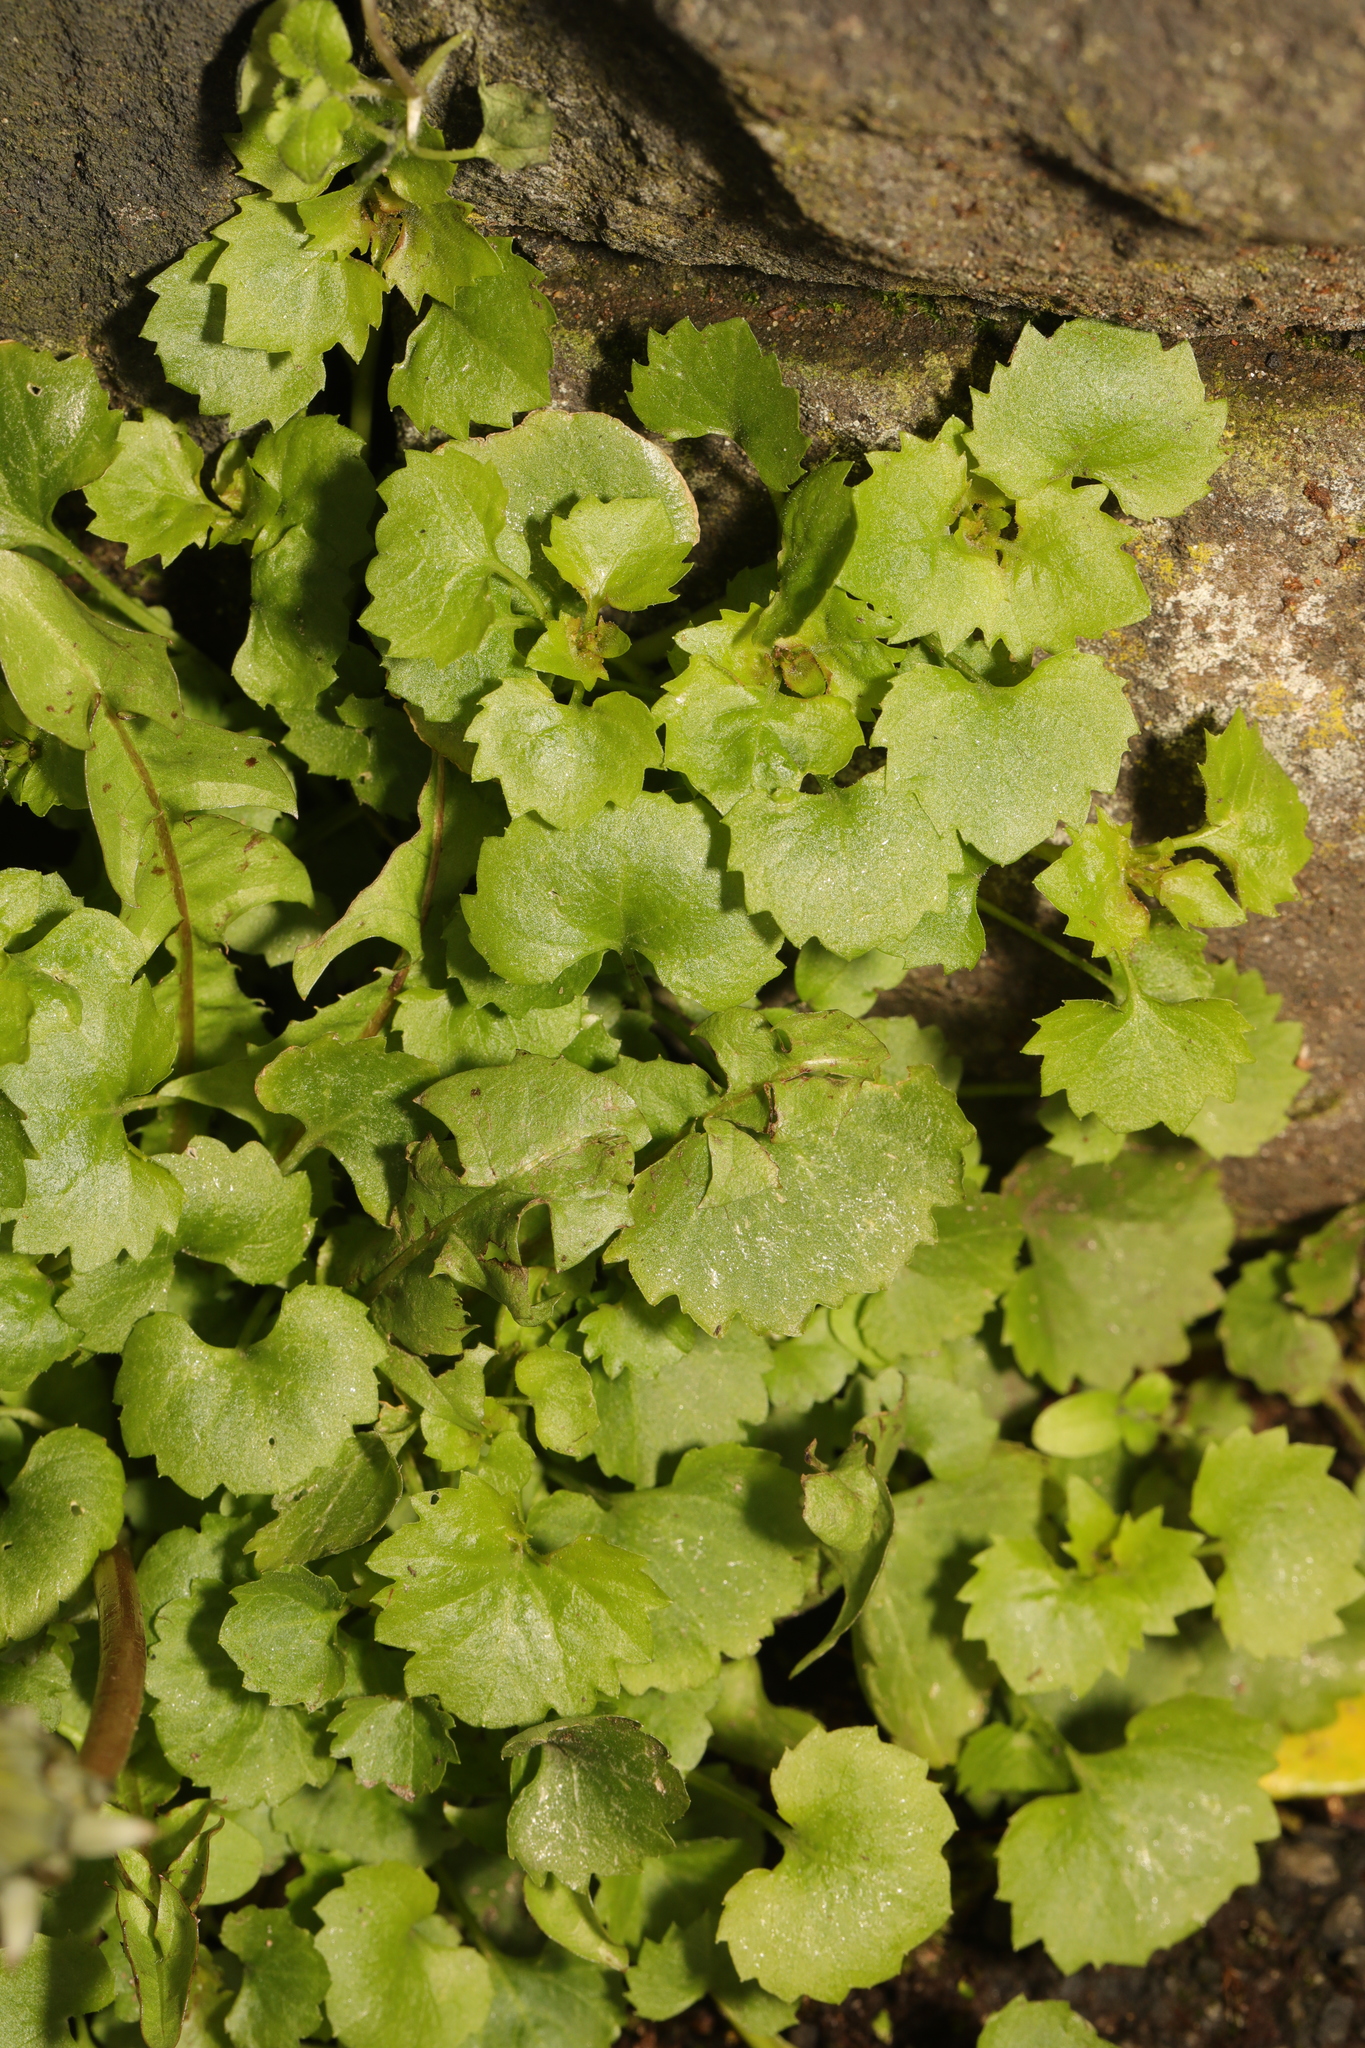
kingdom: Plantae
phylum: Tracheophyta
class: Magnoliopsida
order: Asterales
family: Campanulaceae
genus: Campanula
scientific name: Campanula poscharskyana
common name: Trailing bellflower
